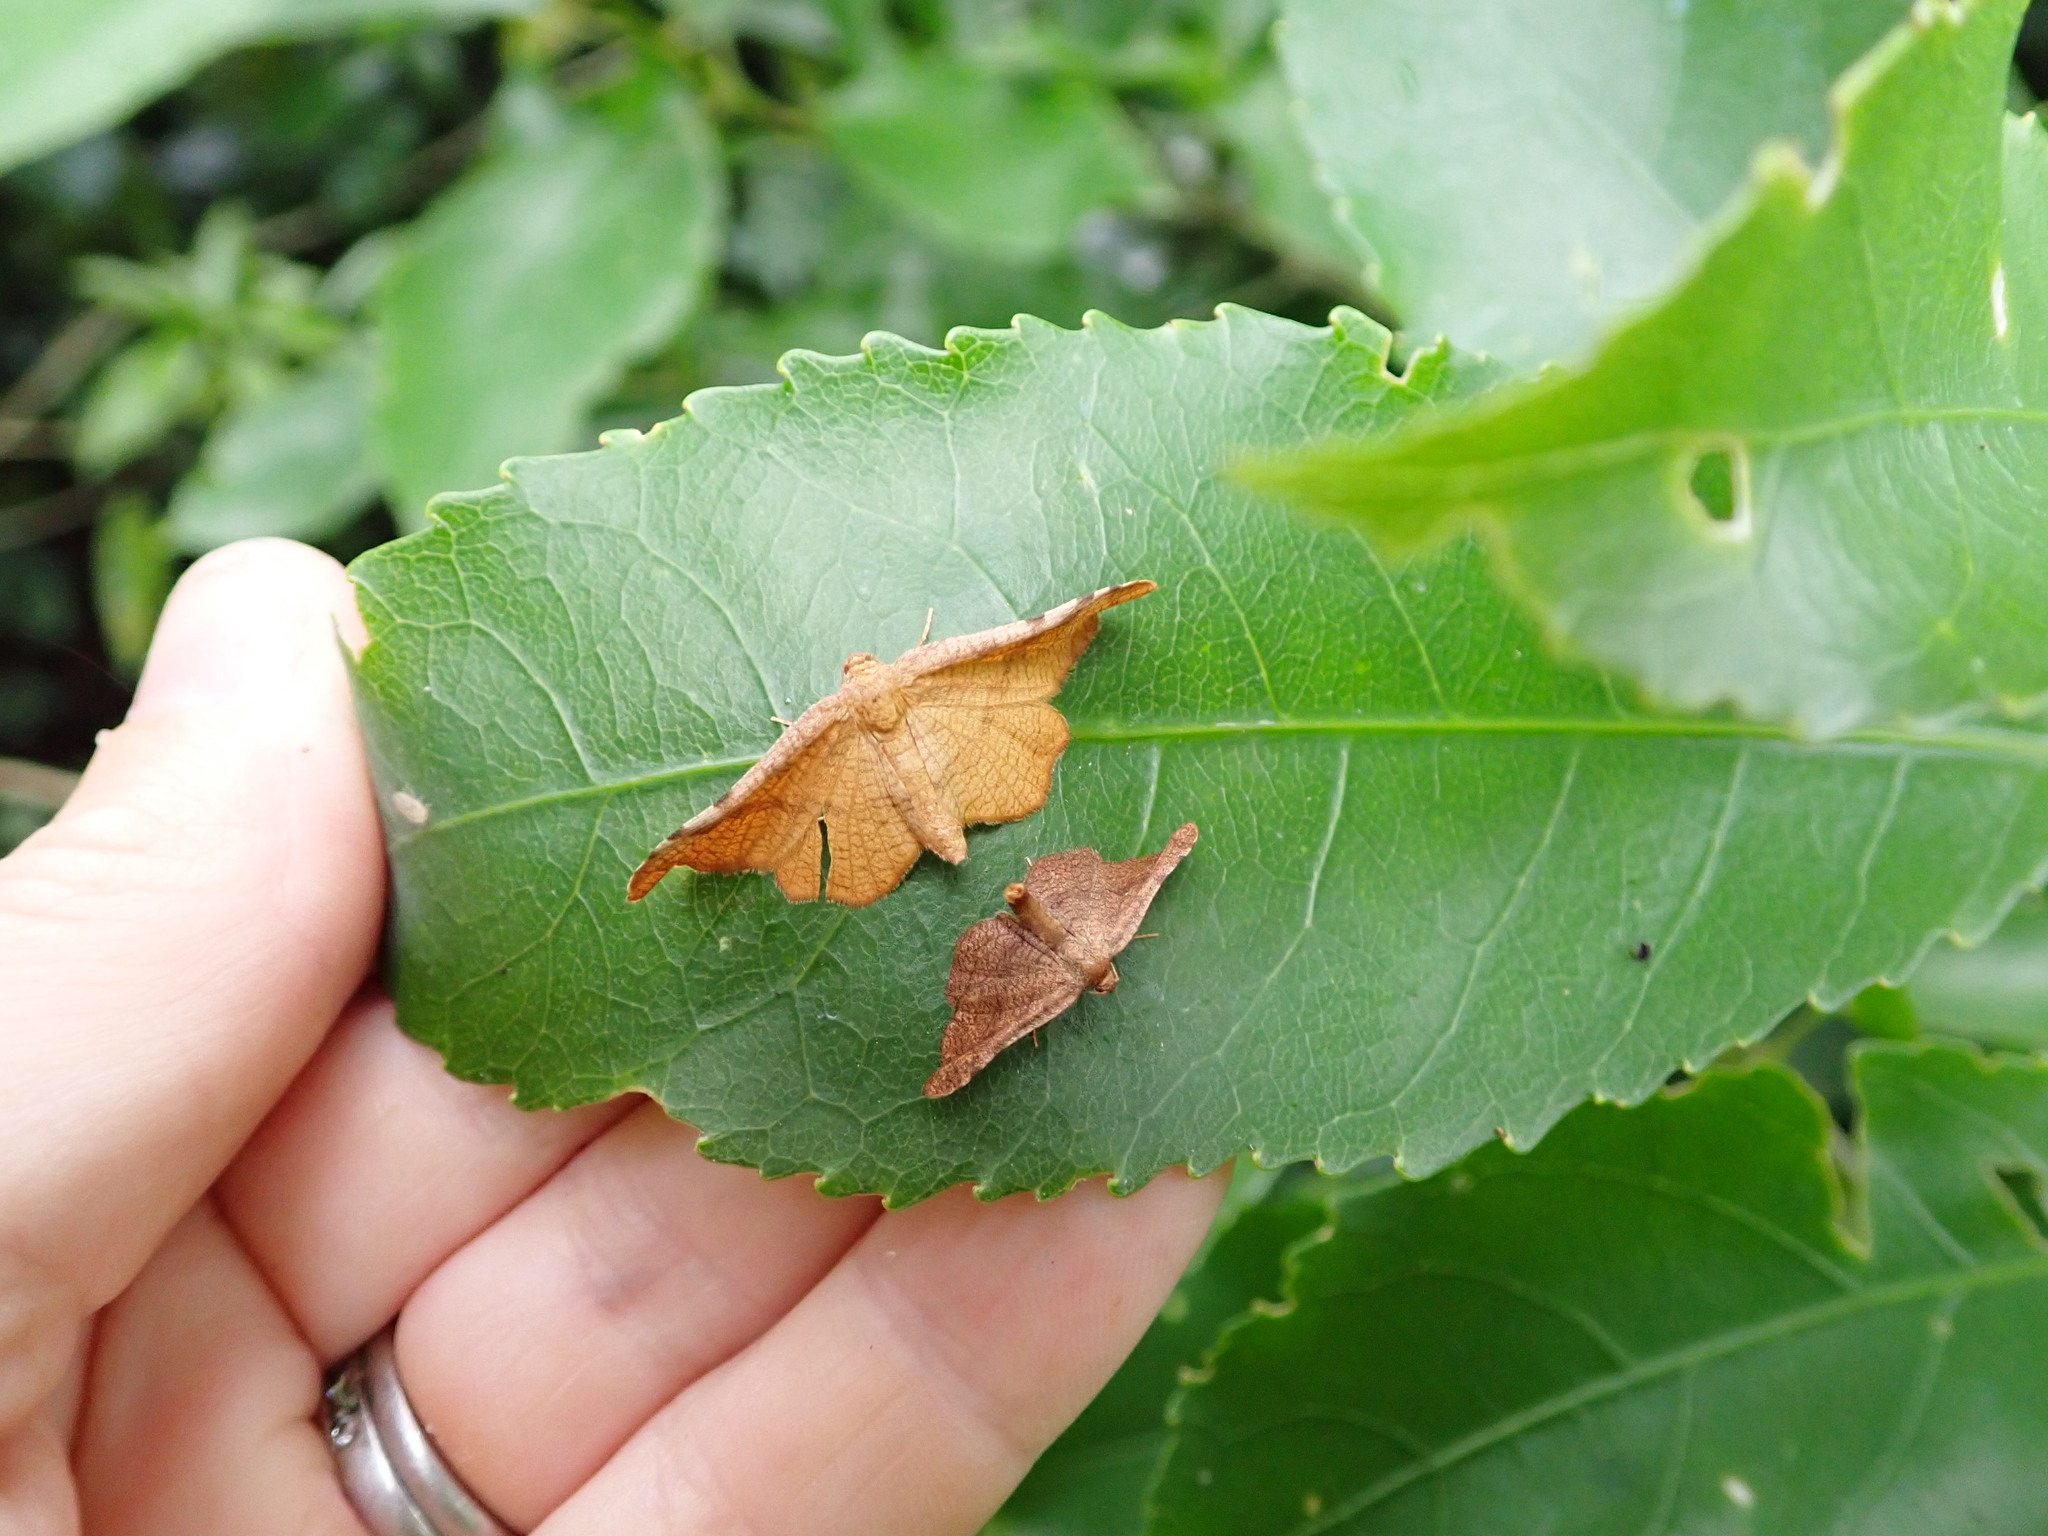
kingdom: Animalia
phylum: Arthropoda
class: Insecta
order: Lepidoptera
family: Thyrididae
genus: Morova
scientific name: Morova subfasciata
